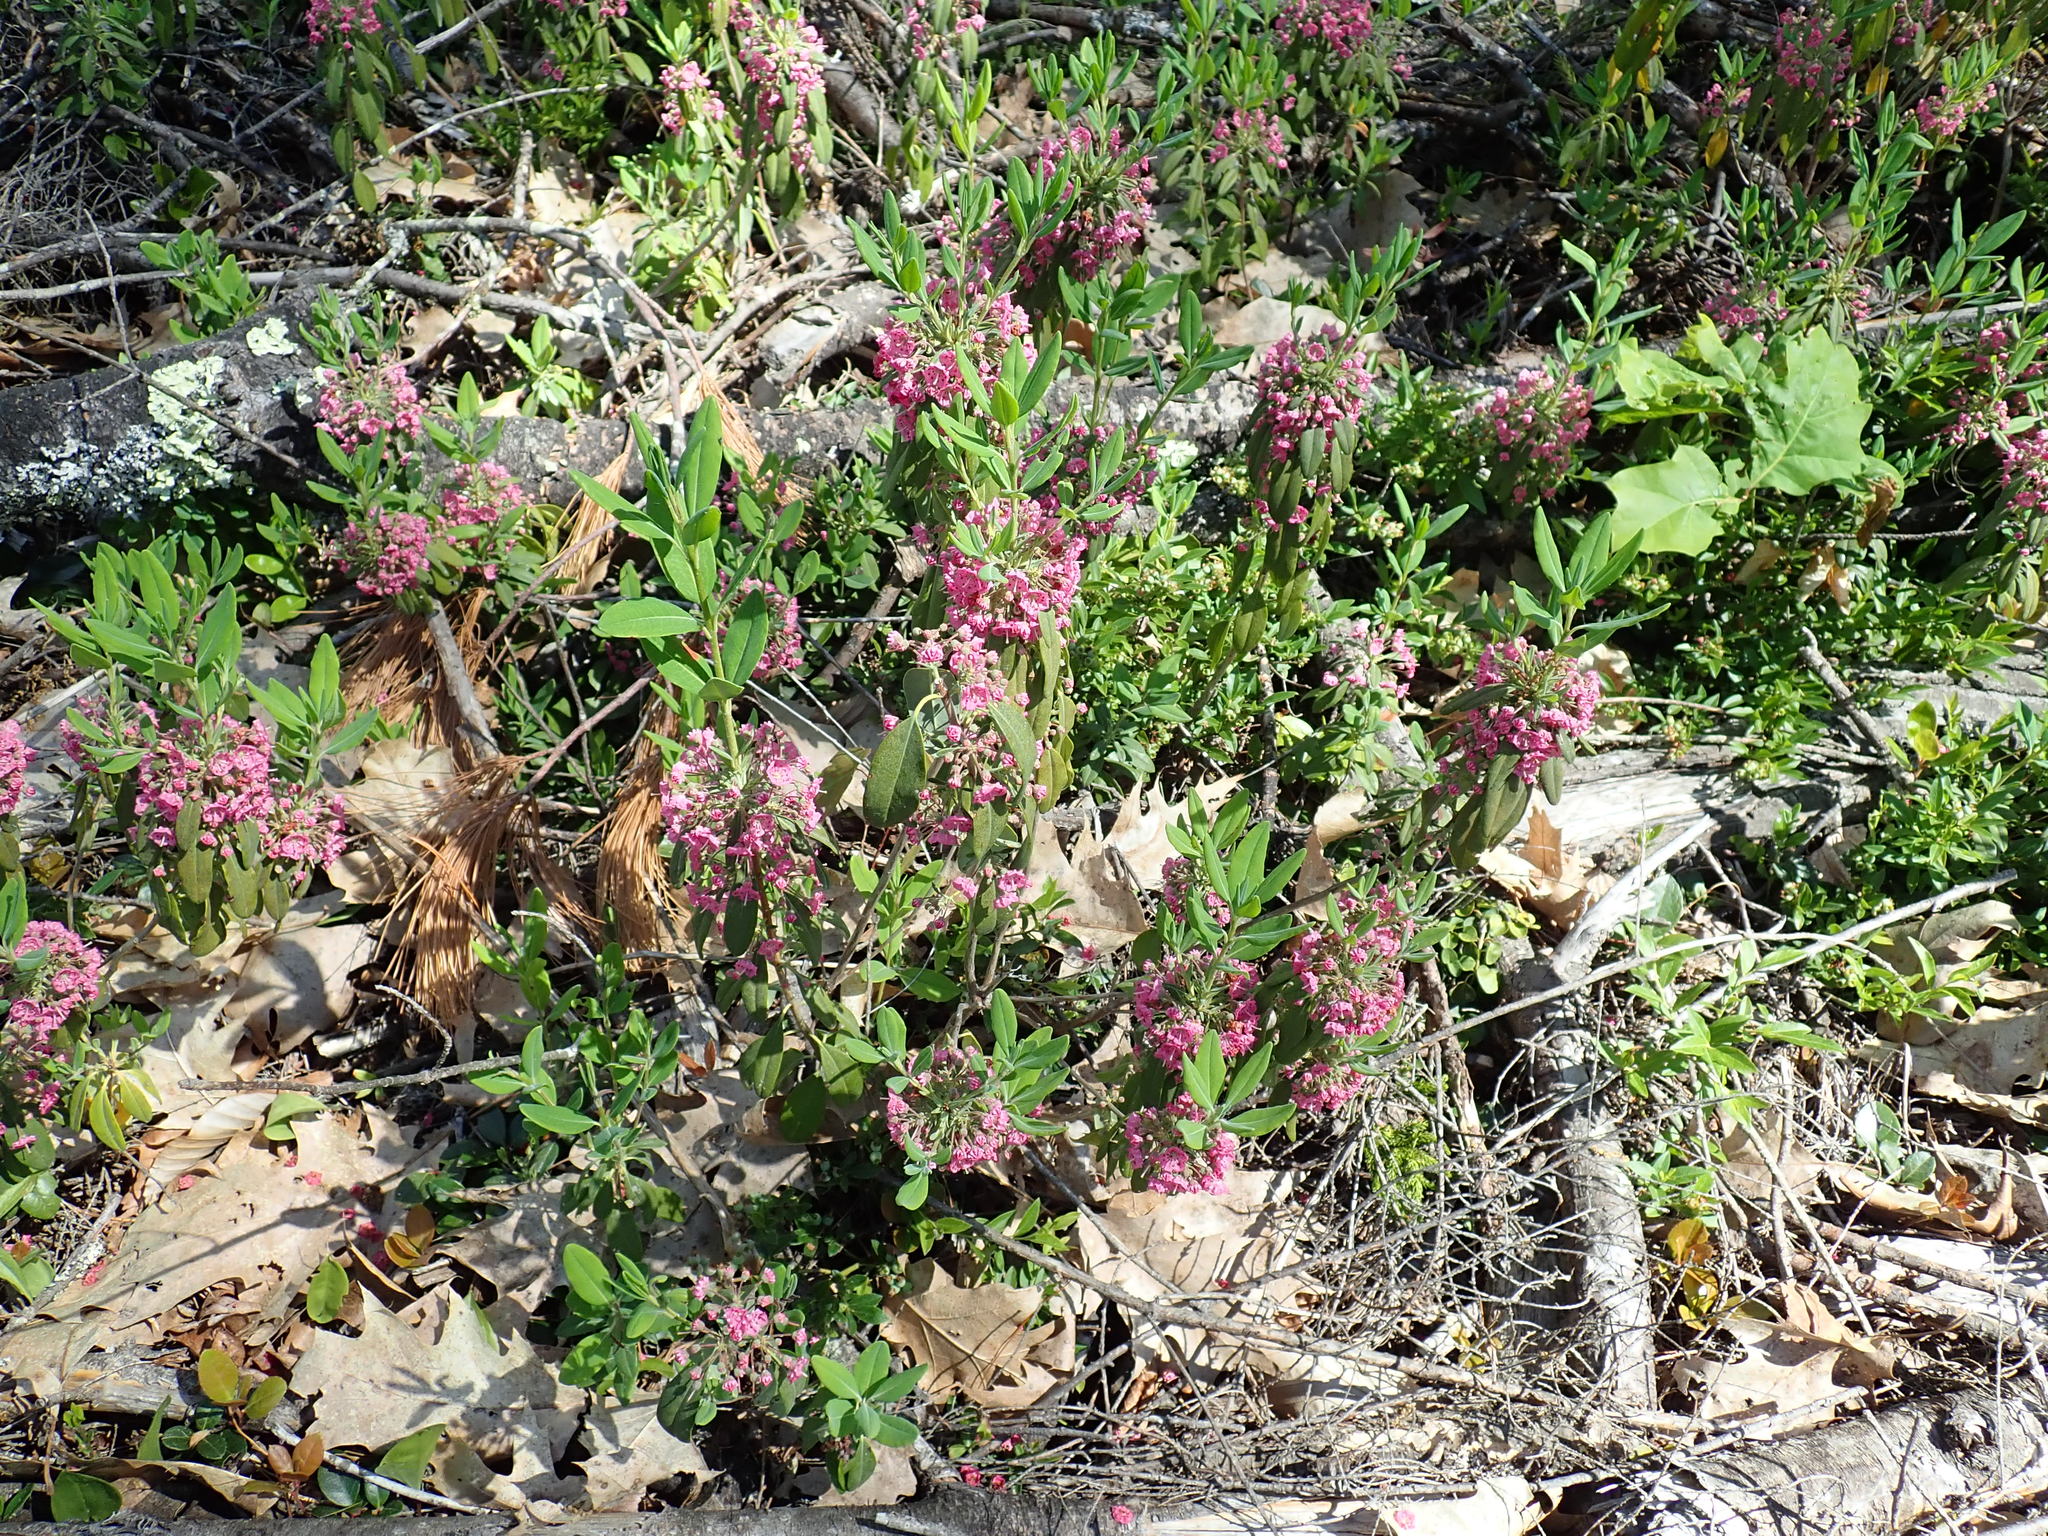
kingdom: Plantae
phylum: Tracheophyta
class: Magnoliopsida
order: Ericales
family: Ericaceae
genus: Kalmia
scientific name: Kalmia angustifolia
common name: Sheep-laurel
